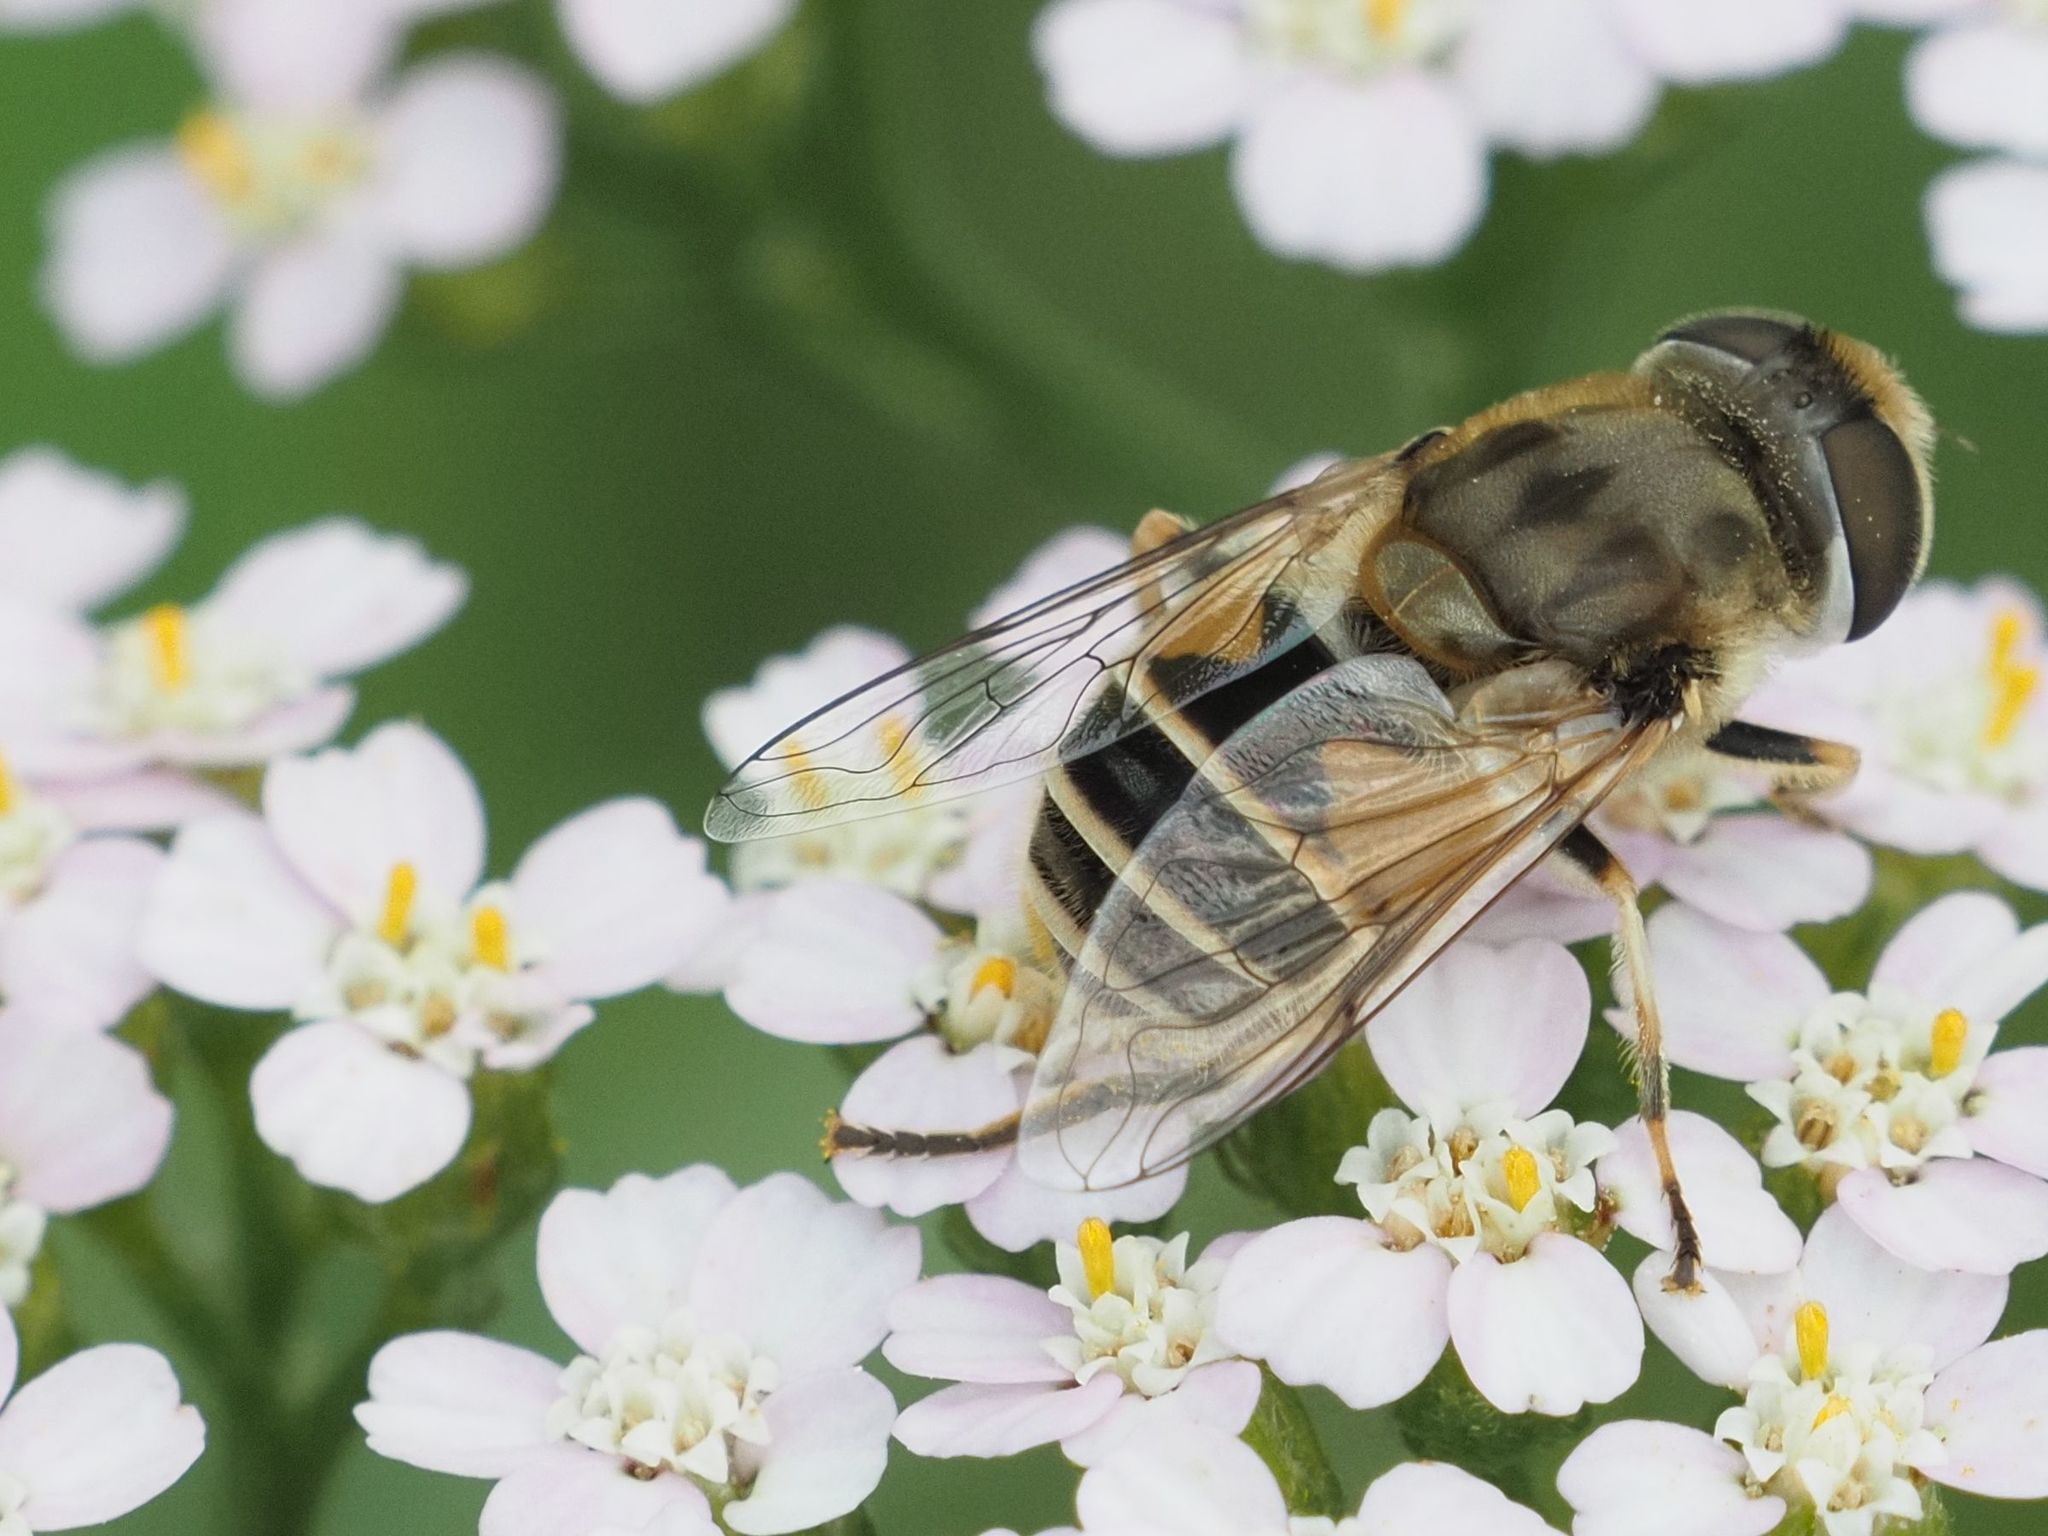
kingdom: Animalia
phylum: Arthropoda
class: Insecta
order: Diptera
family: Syrphidae
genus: Eristalis
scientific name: Eristalis arbustorum
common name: Hover fly
